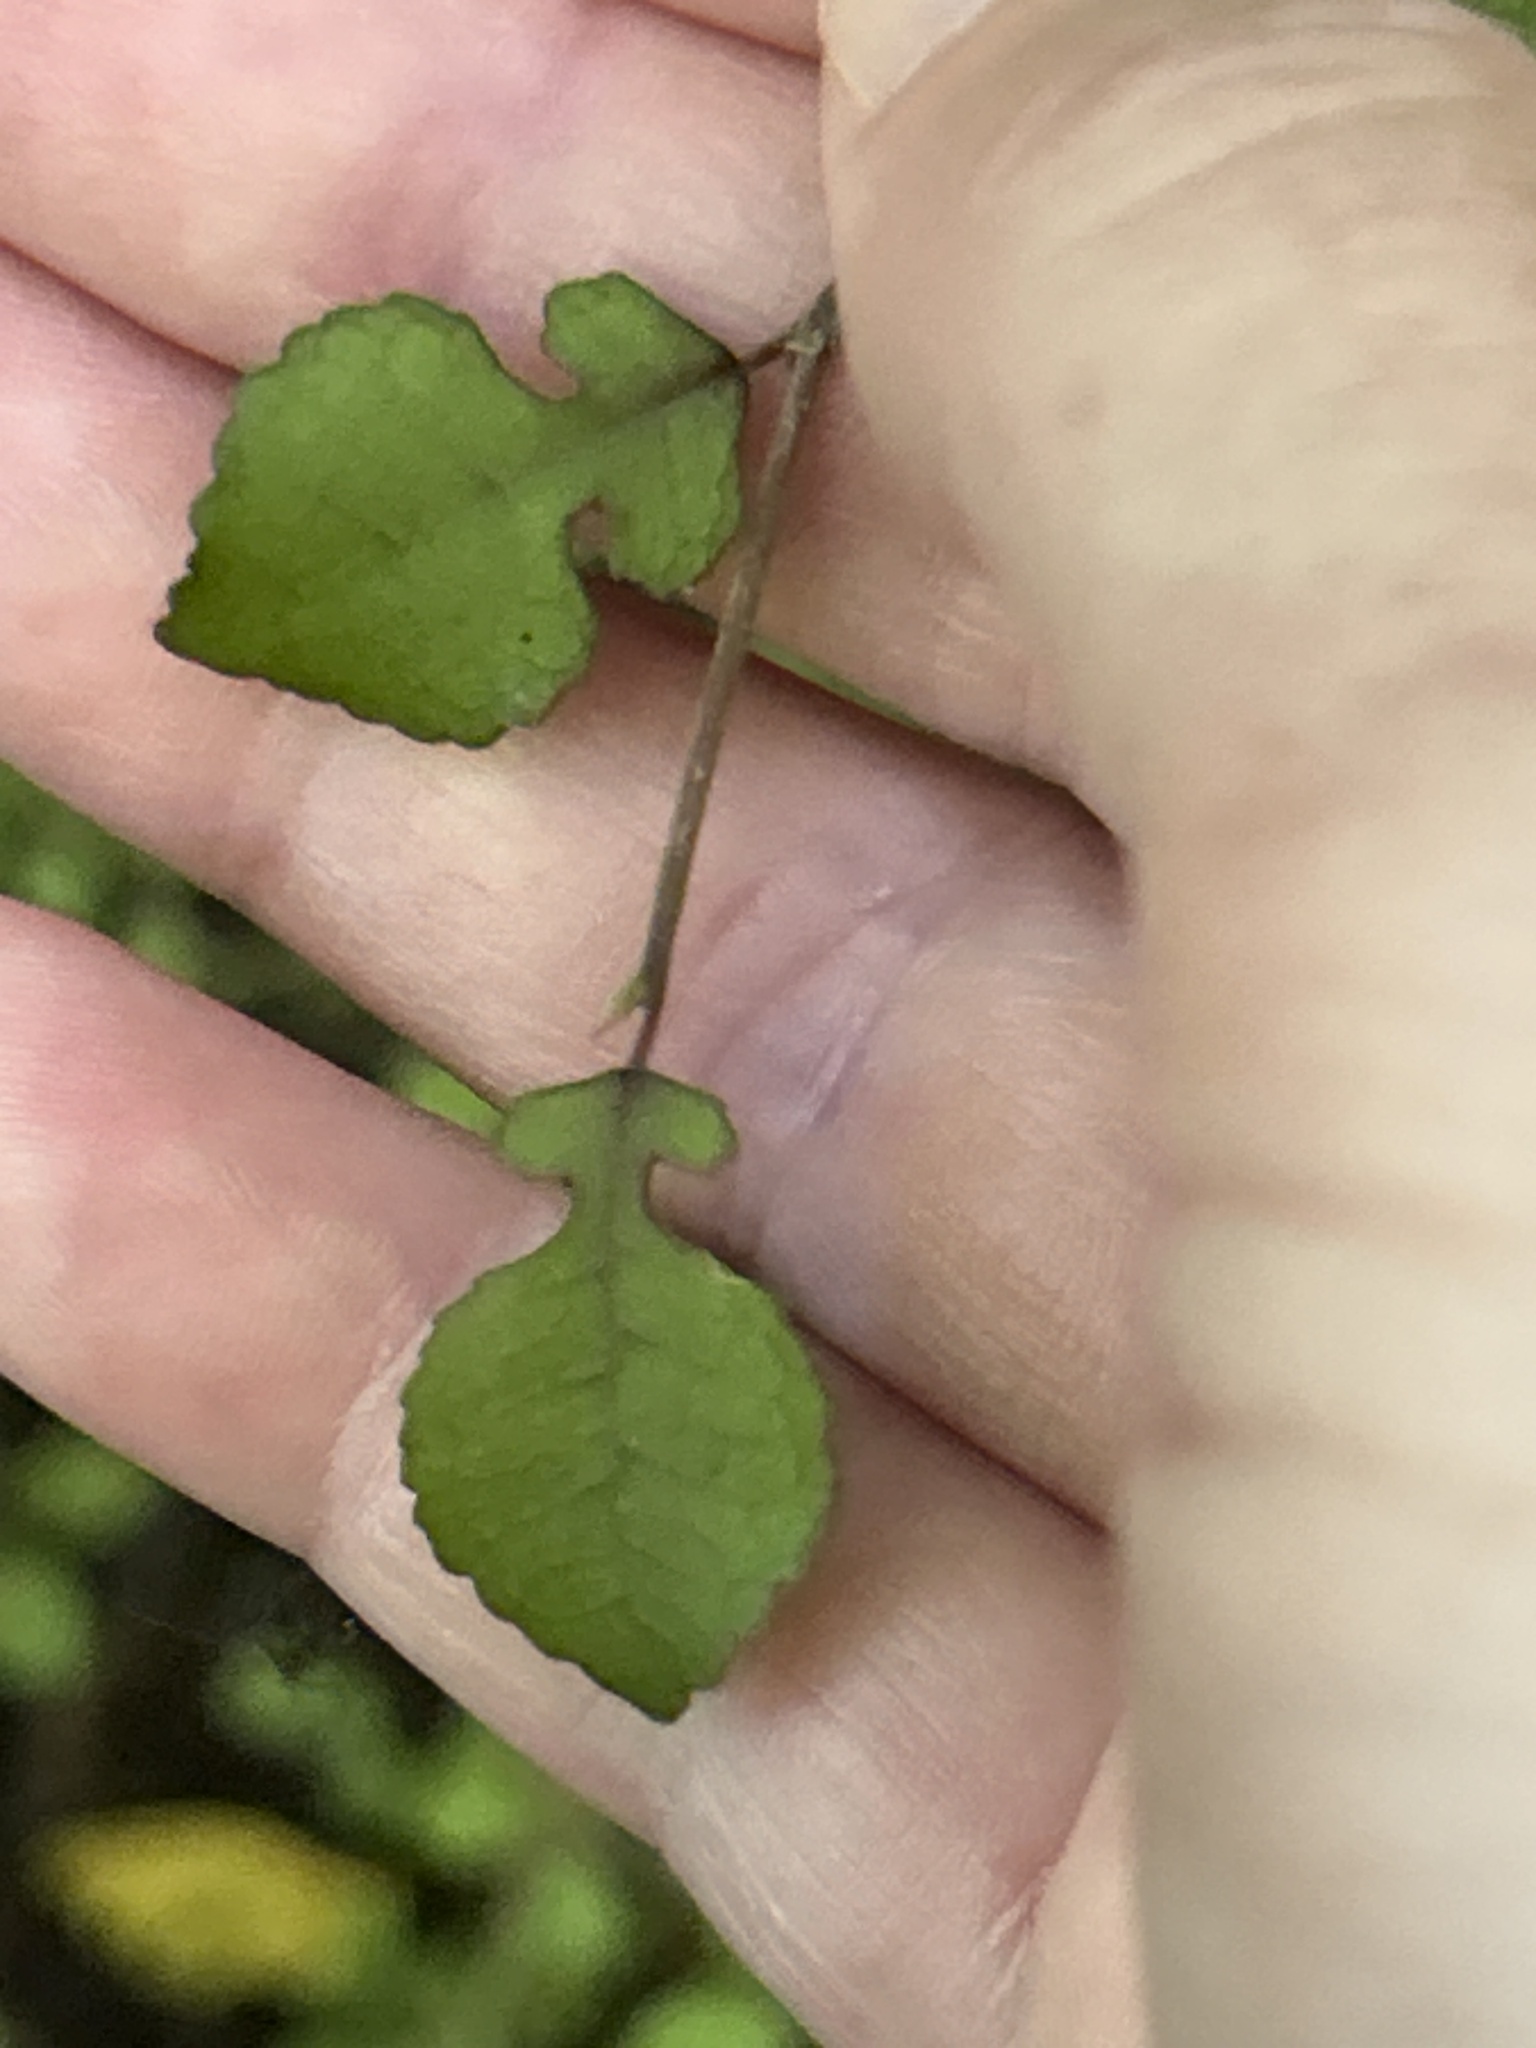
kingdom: Plantae
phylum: Tracheophyta
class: Magnoliopsida
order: Rosales
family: Moraceae
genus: Paratrophis
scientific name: Paratrophis microphylla
